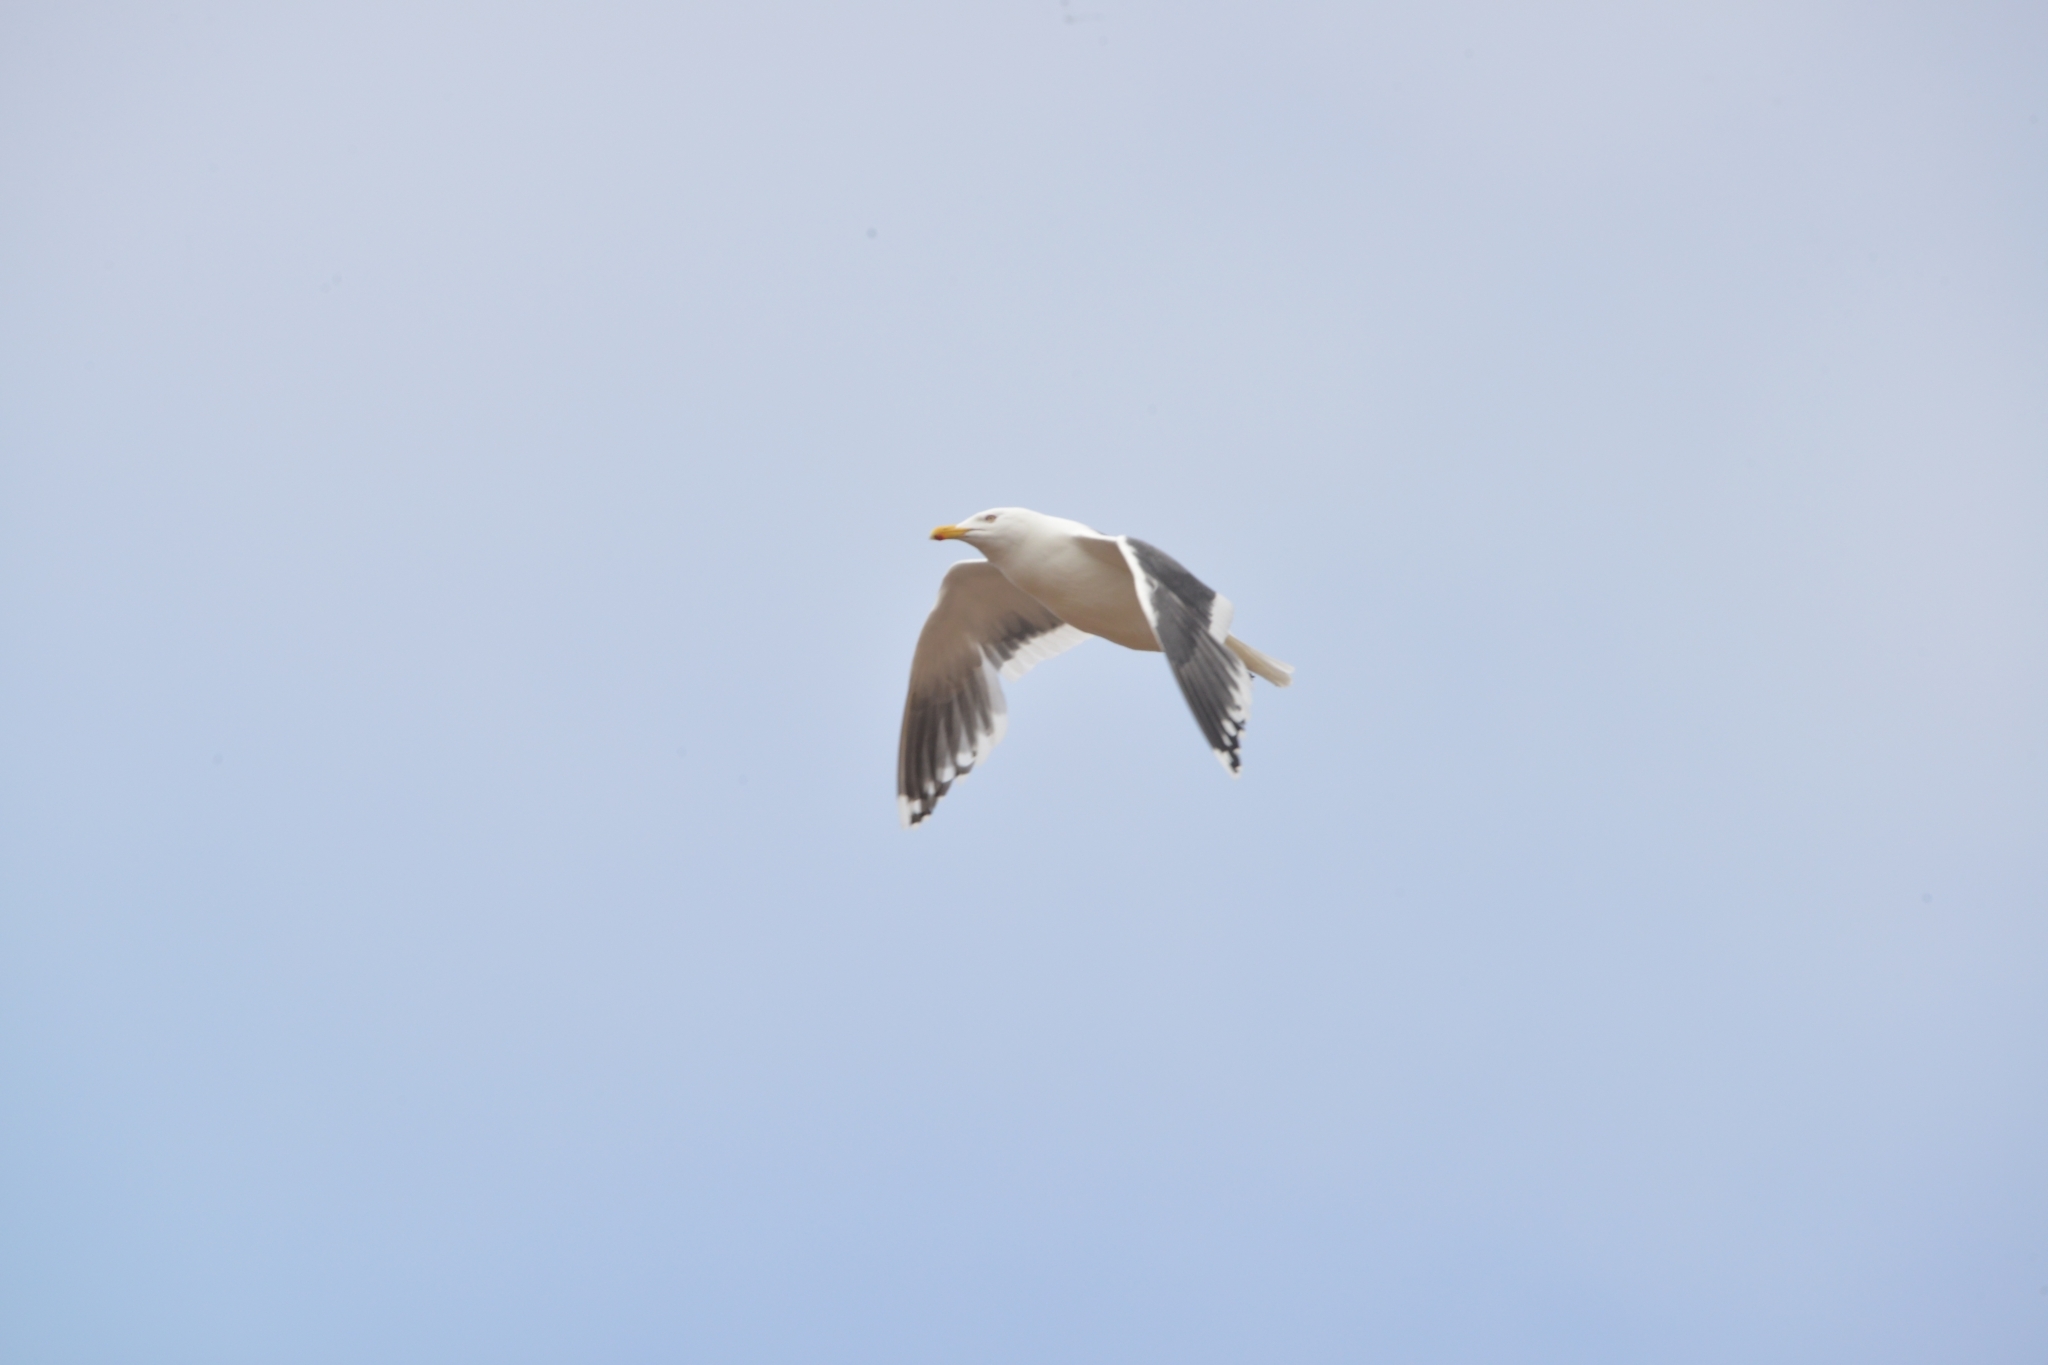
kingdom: Animalia
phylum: Chordata
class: Aves
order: Charadriiformes
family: Laridae
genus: Larus
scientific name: Larus schistisagus
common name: Slaty-backed gull
